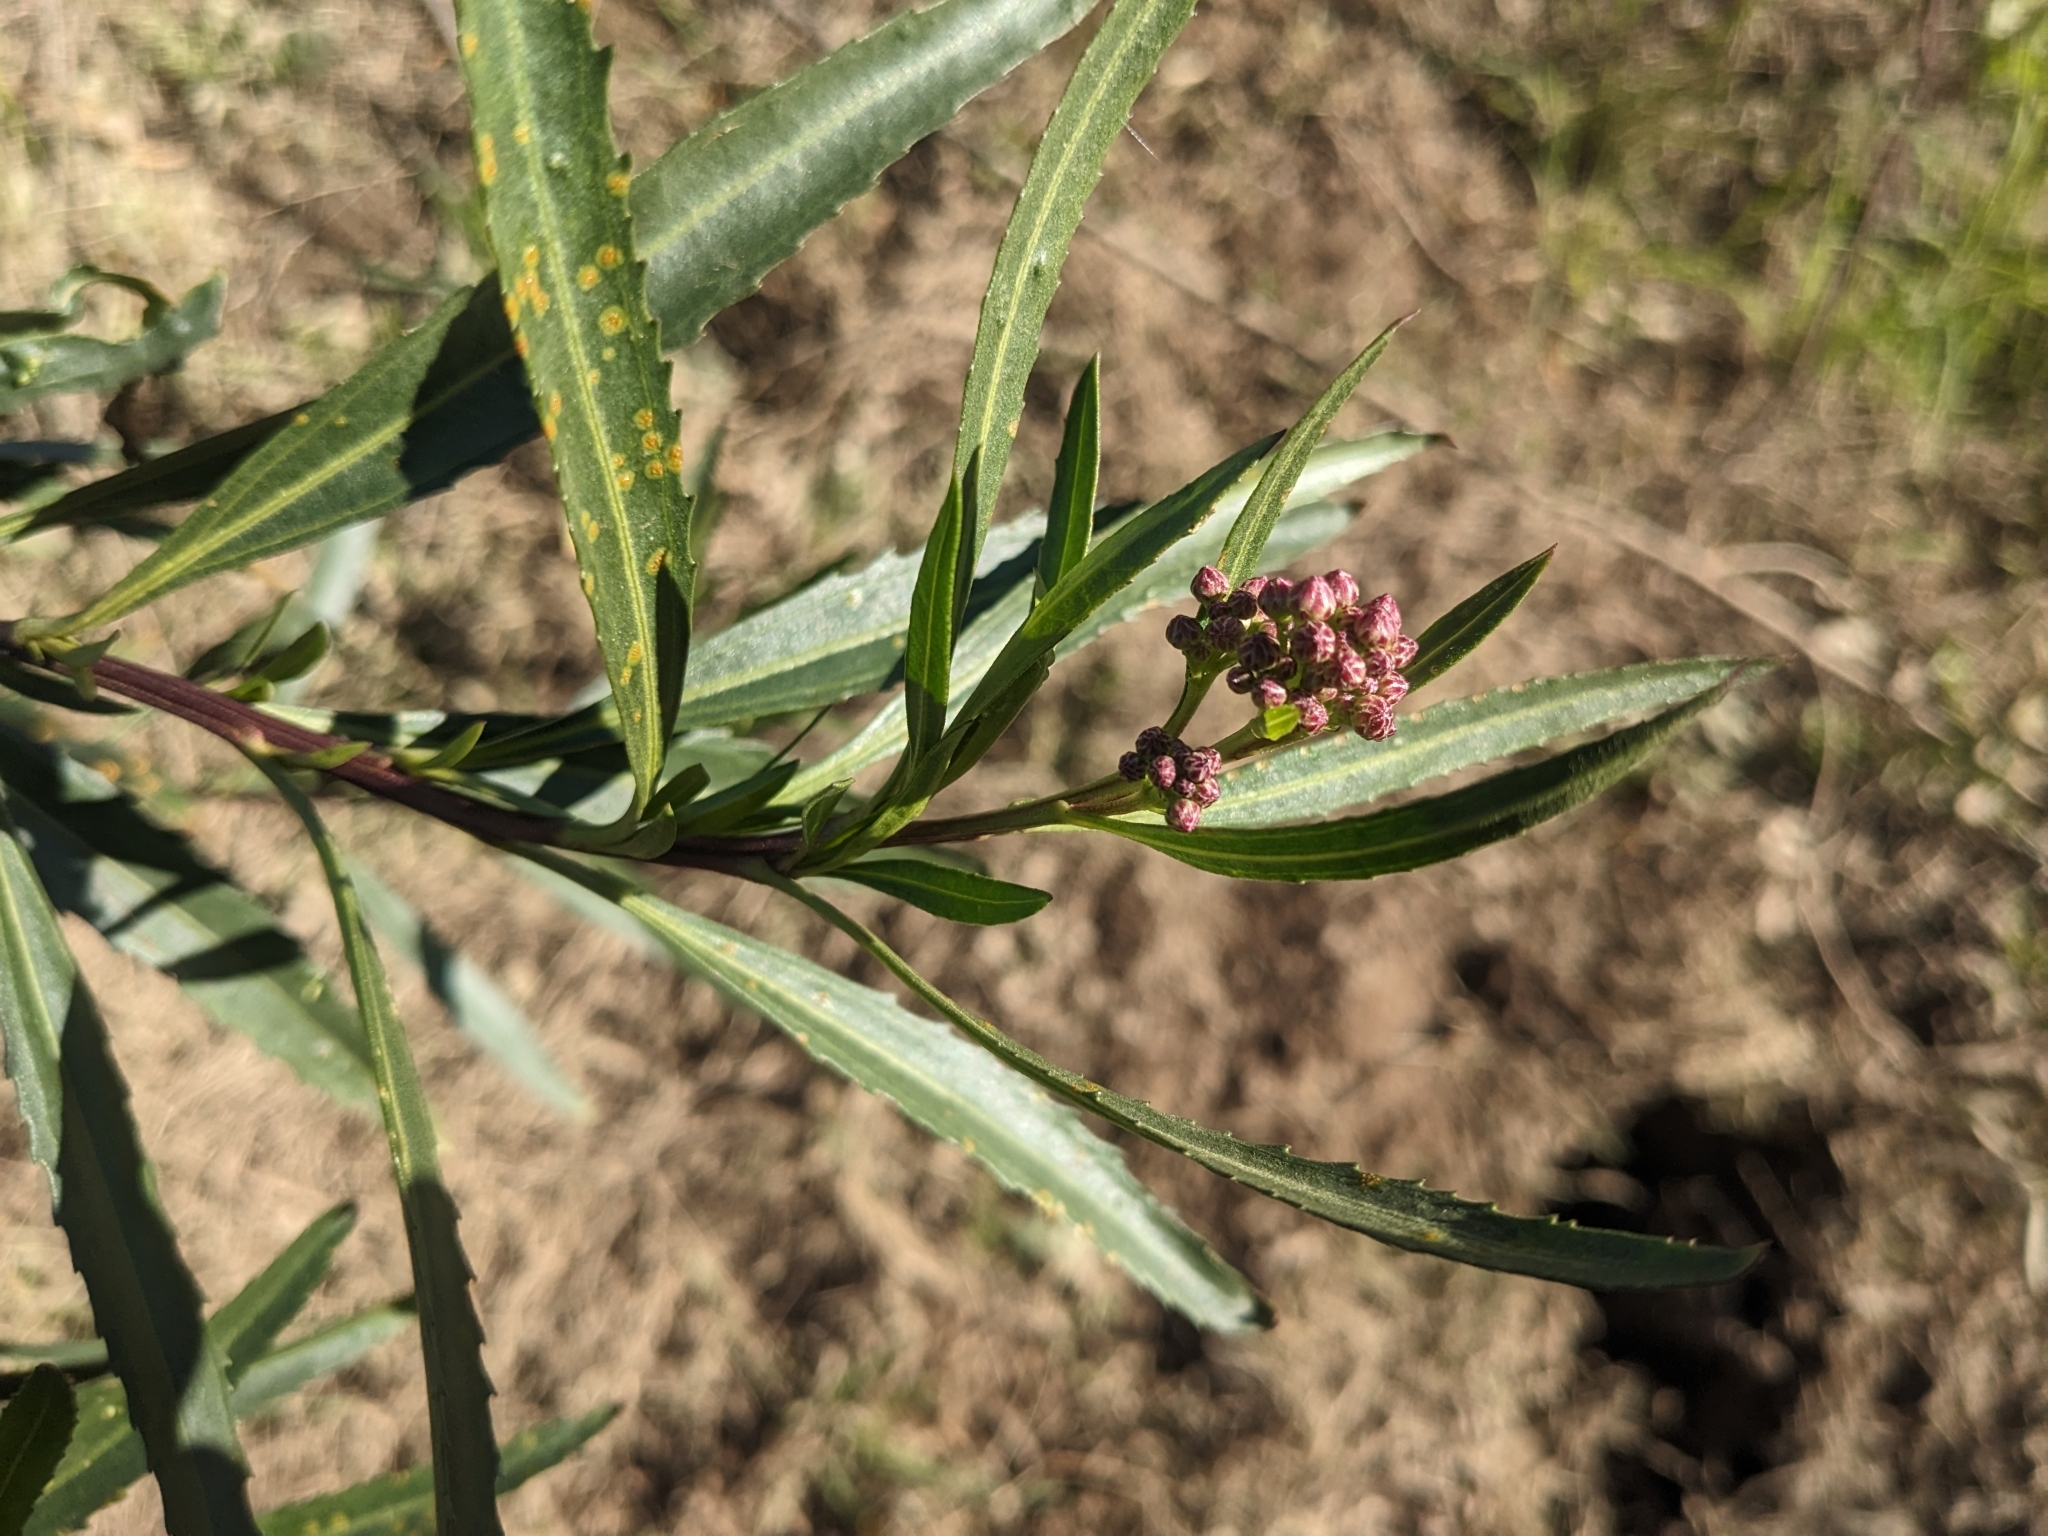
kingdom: Plantae
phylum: Tracheophyta
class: Magnoliopsida
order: Asterales
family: Asteraceae
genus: Baccharis
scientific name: Baccharis salicifolia
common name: Sticky baccharis
